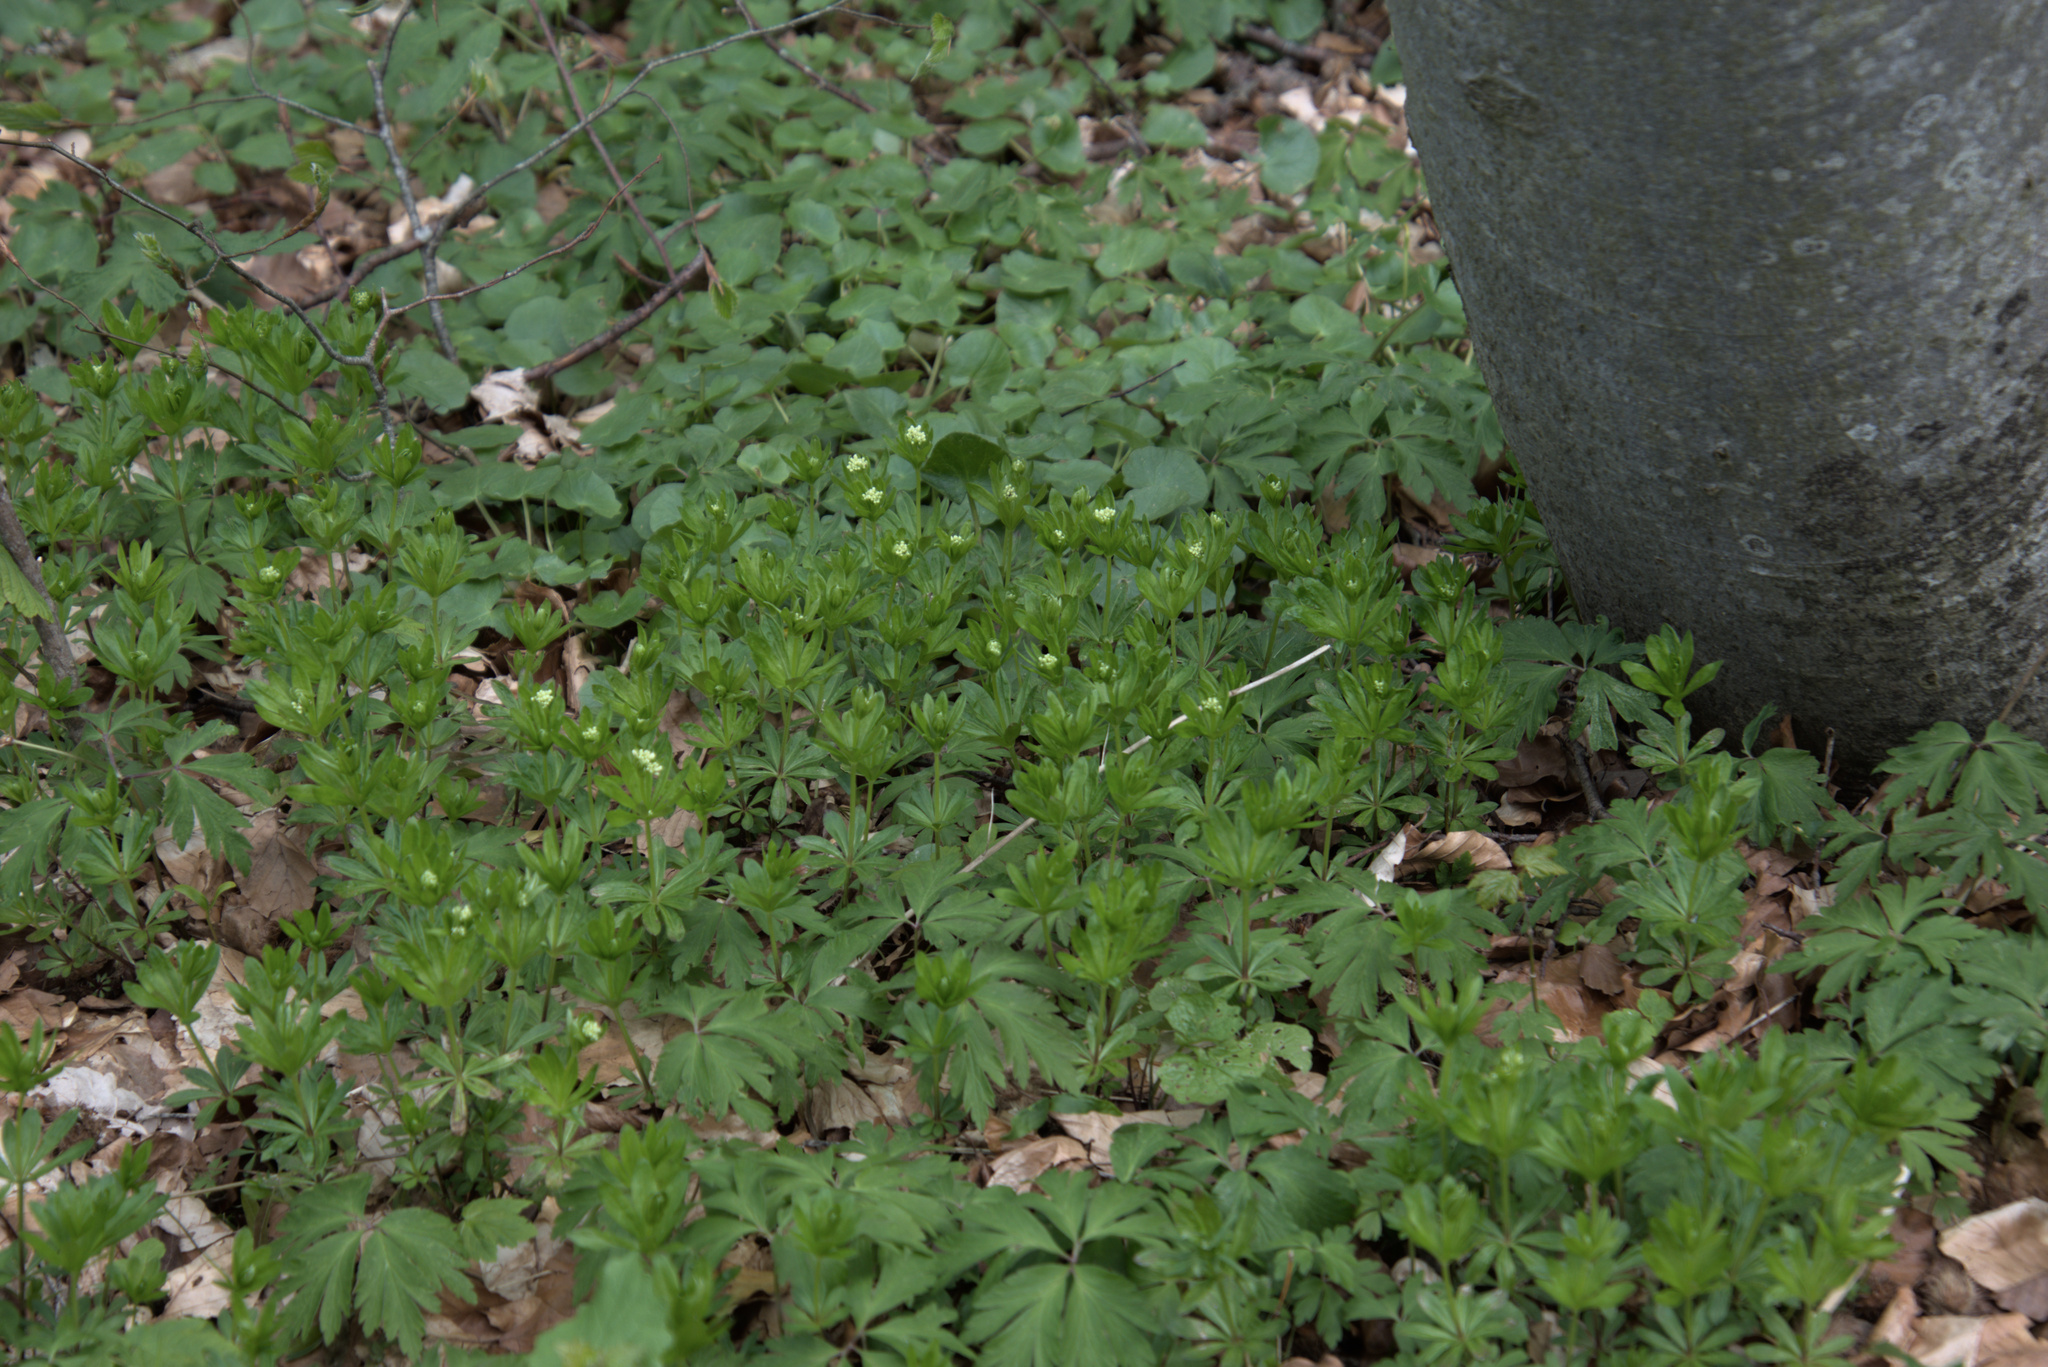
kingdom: Plantae
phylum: Tracheophyta
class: Magnoliopsida
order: Gentianales
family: Rubiaceae
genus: Galium
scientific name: Galium odoratum
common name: Sweet woodruff
